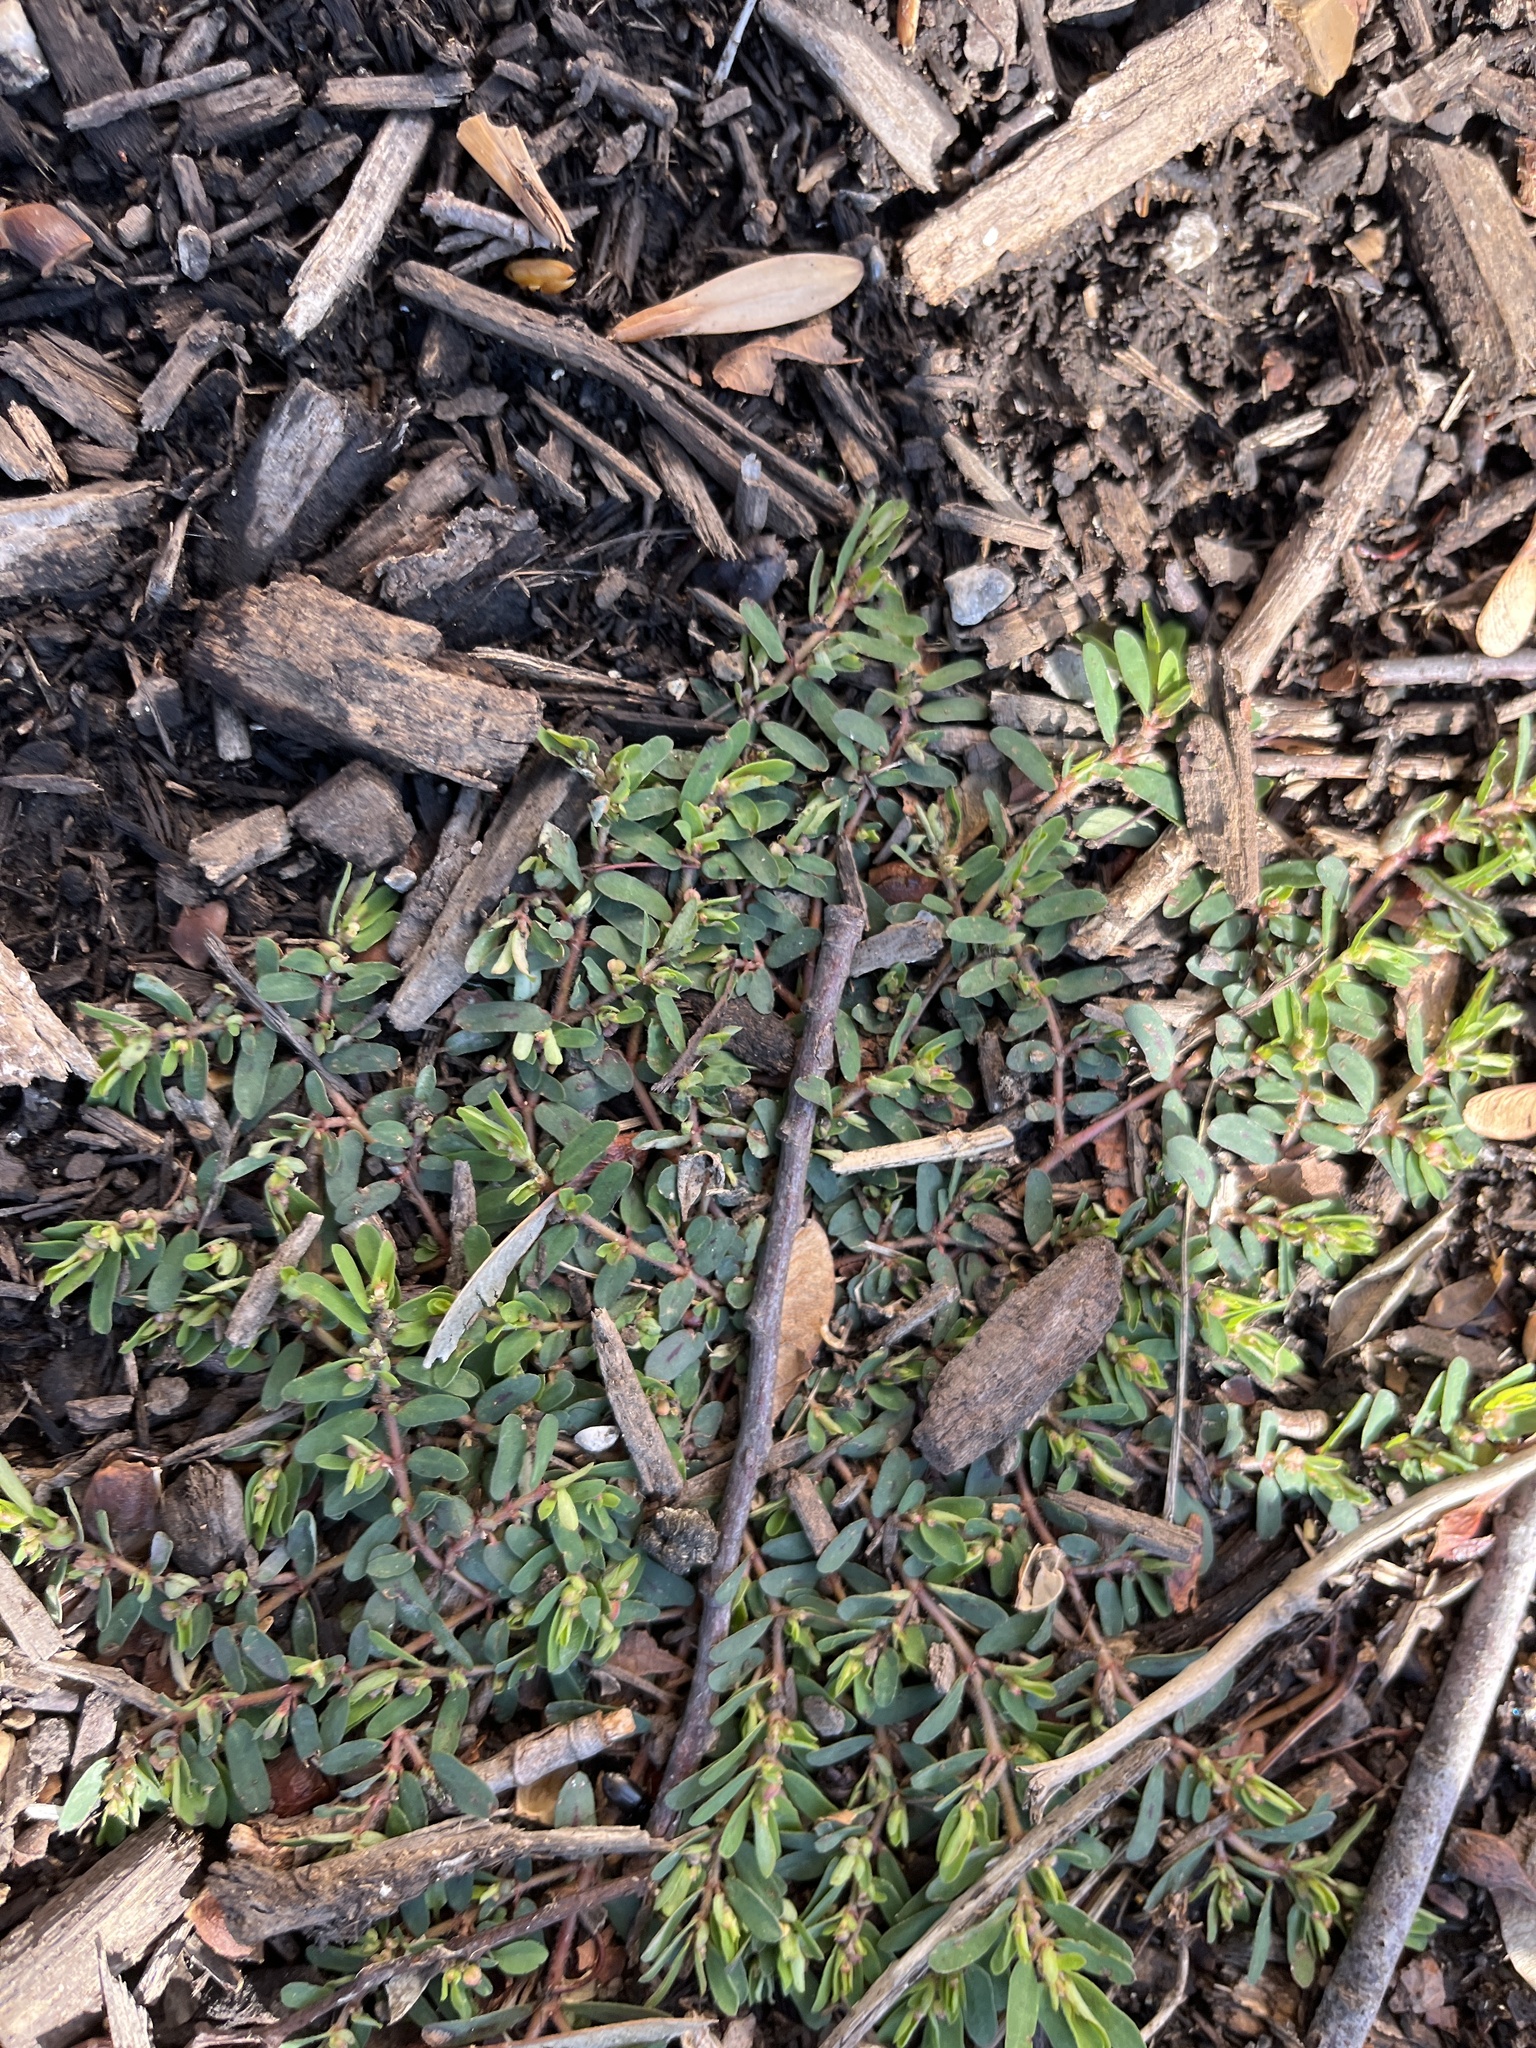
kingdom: Plantae
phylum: Tracheophyta
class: Magnoliopsida
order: Malpighiales
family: Euphorbiaceae
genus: Euphorbia
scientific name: Euphorbia maculata
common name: Spotted spurge
